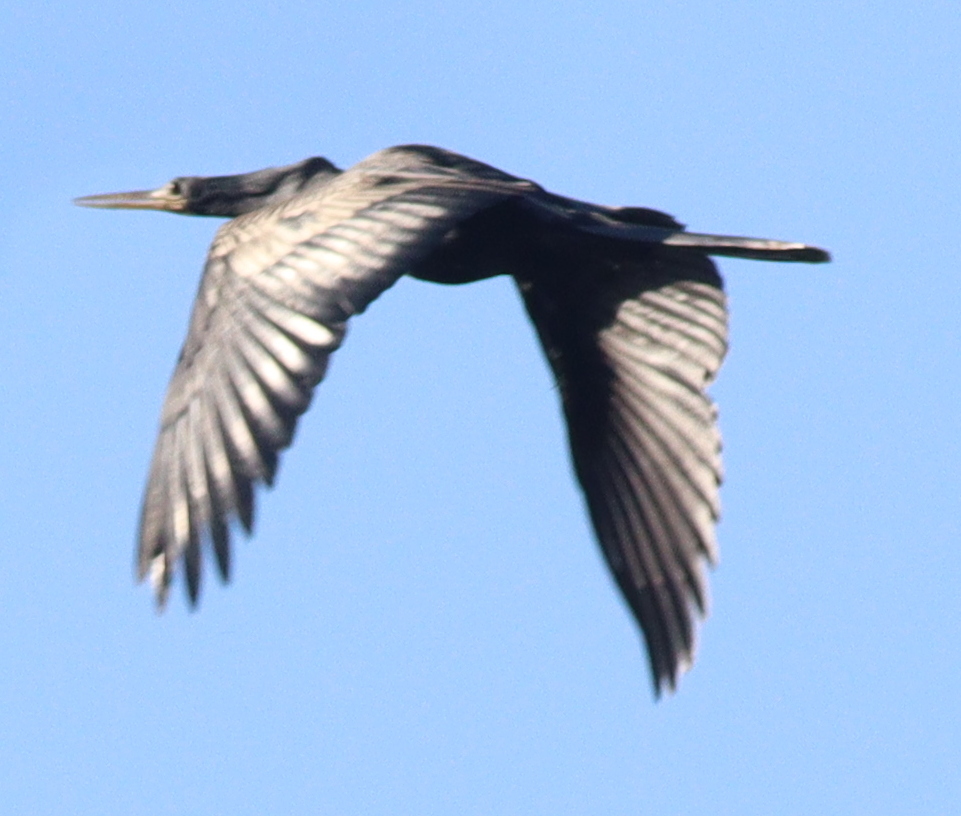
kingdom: Animalia
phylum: Chordata
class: Aves
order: Suliformes
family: Anhingidae
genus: Anhinga
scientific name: Anhinga anhinga
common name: Anhinga
